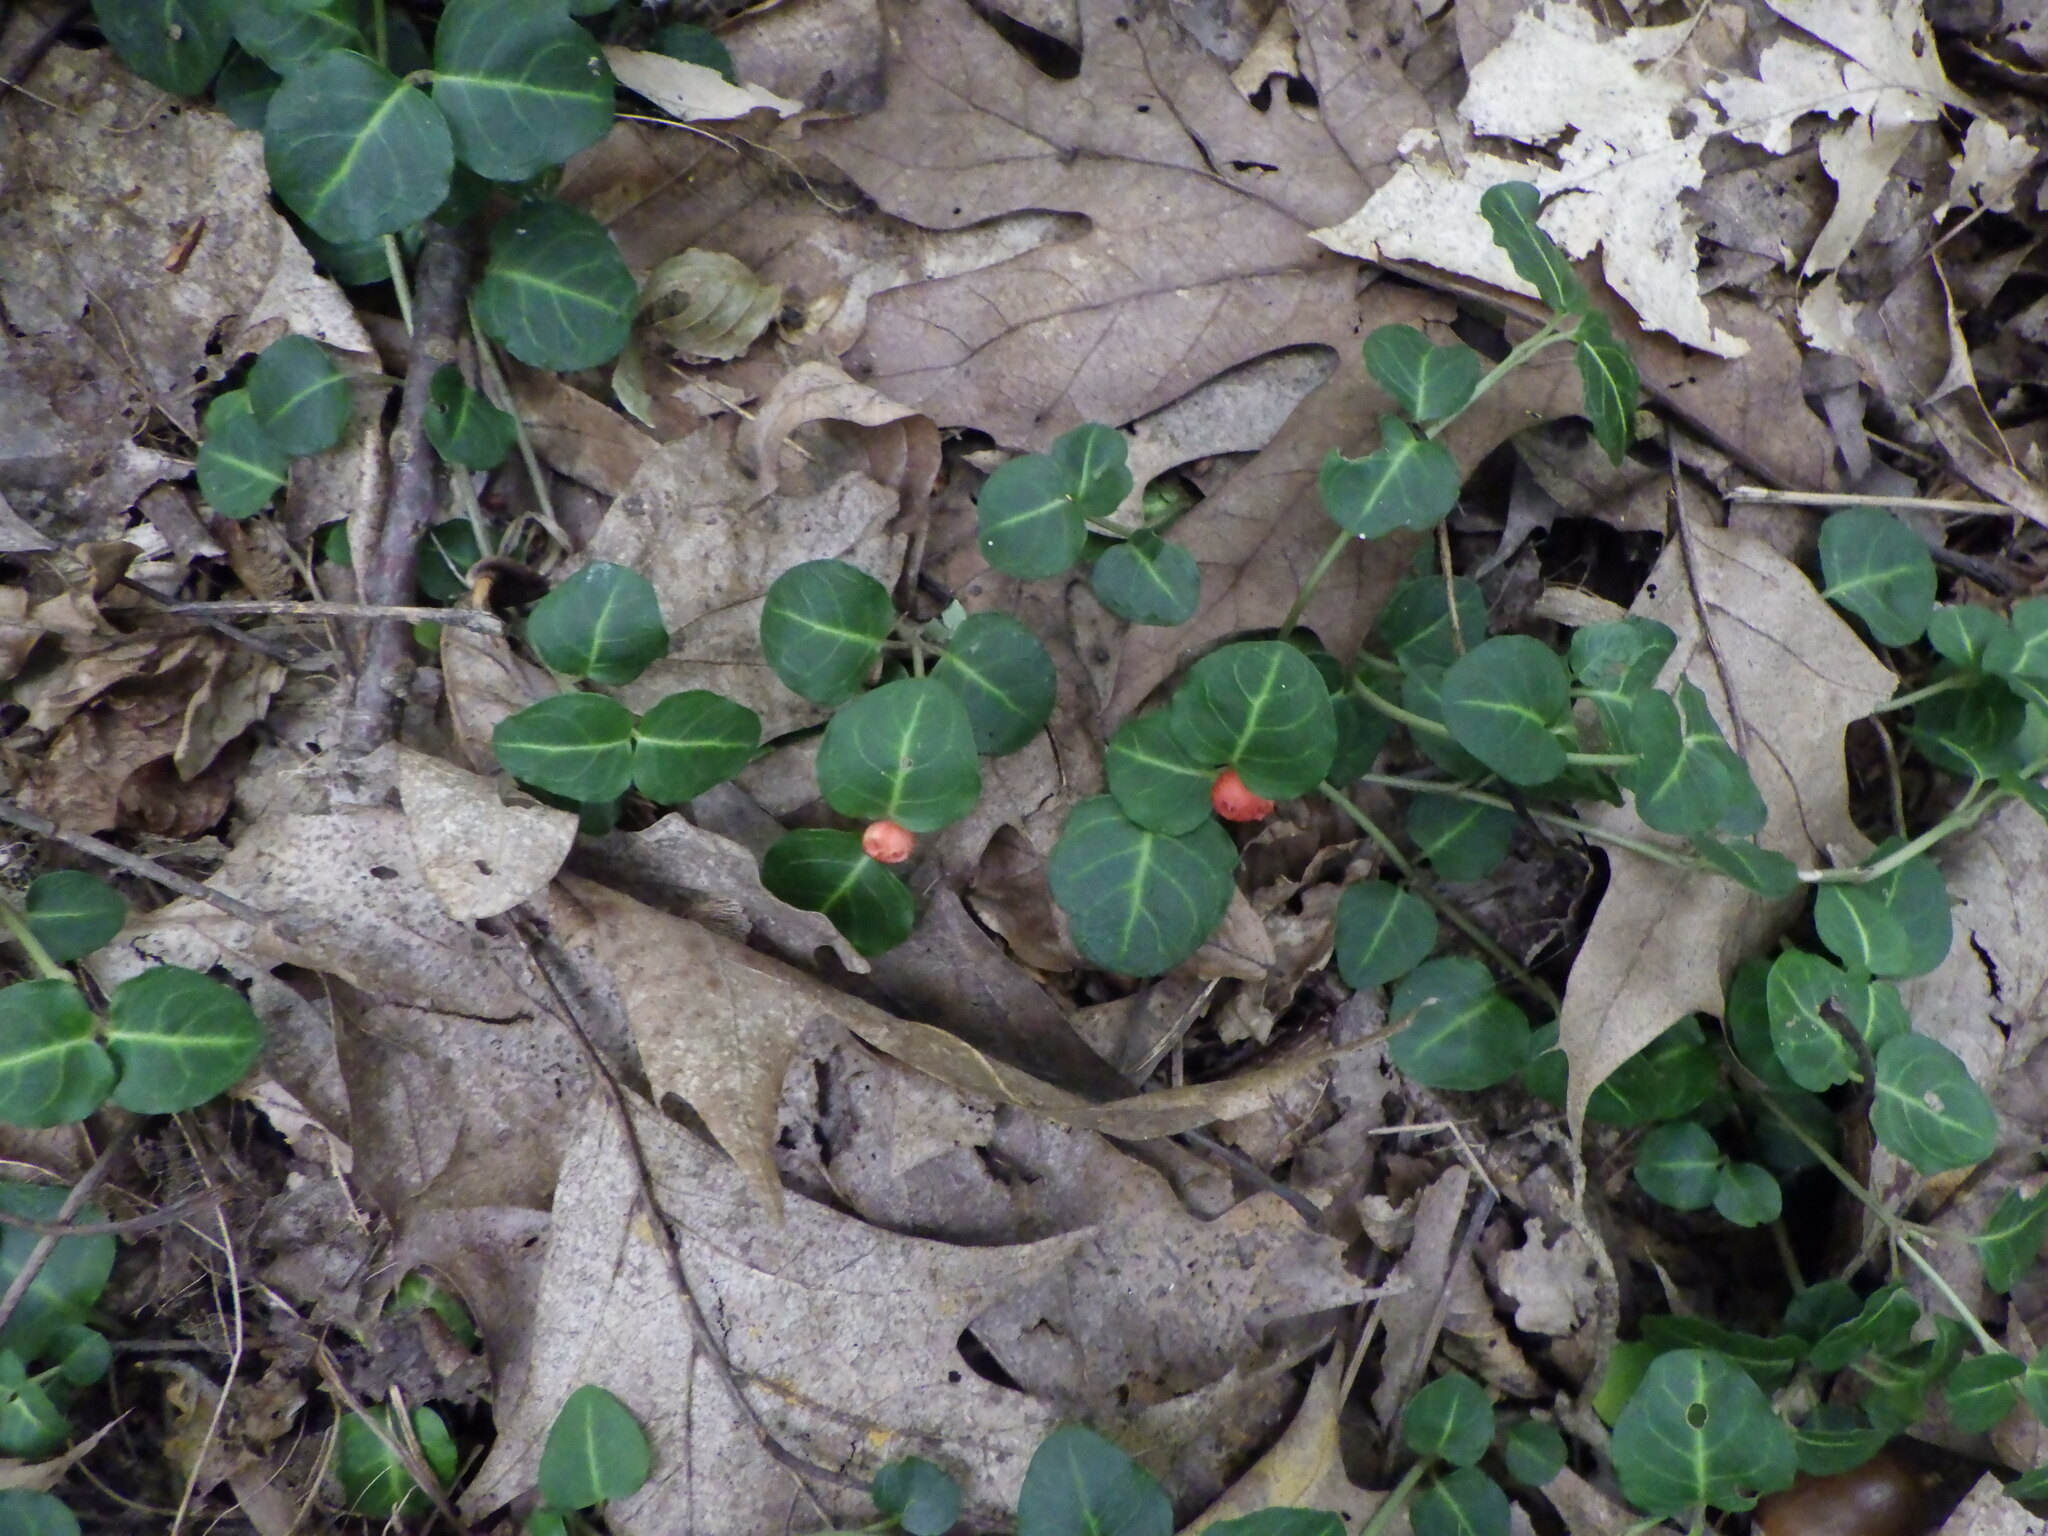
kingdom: Plantae
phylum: Tracheophyta
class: Magnoliopsida
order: Gentianales
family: Rubiaceae
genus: Mitchella
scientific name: Mitchella repens
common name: Partridge-berry
